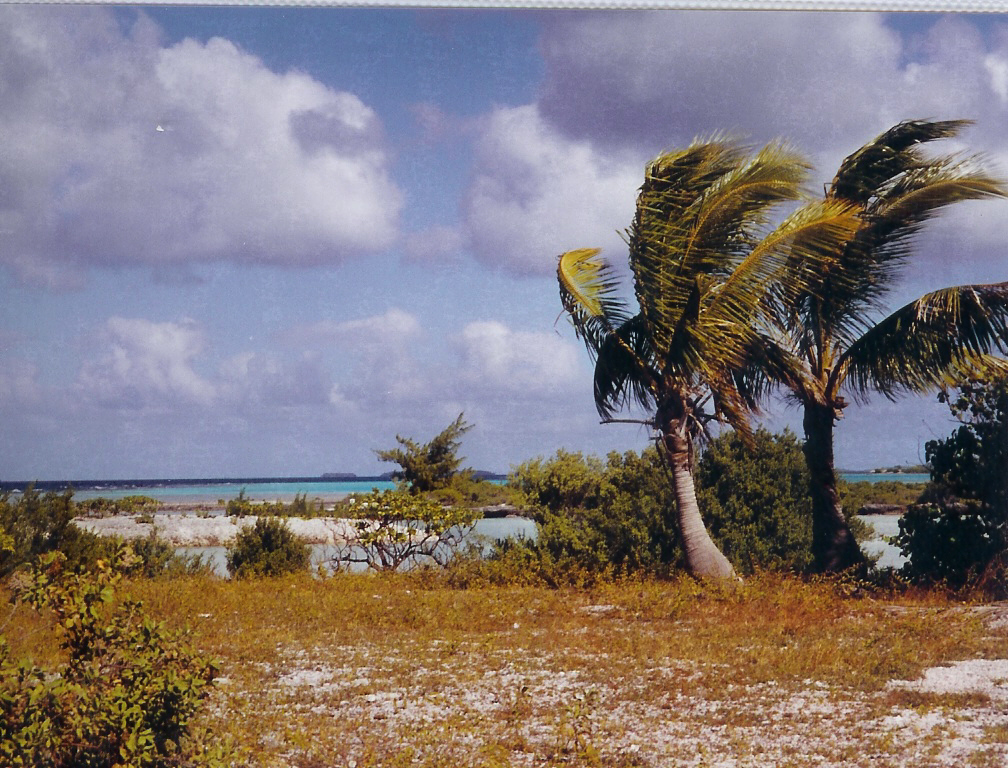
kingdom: Plantae
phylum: Tracheophyta
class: Liliopsida
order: Arecales
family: Arecaceae
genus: Cocos
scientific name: Cocos nucifera
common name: Coconut palm
